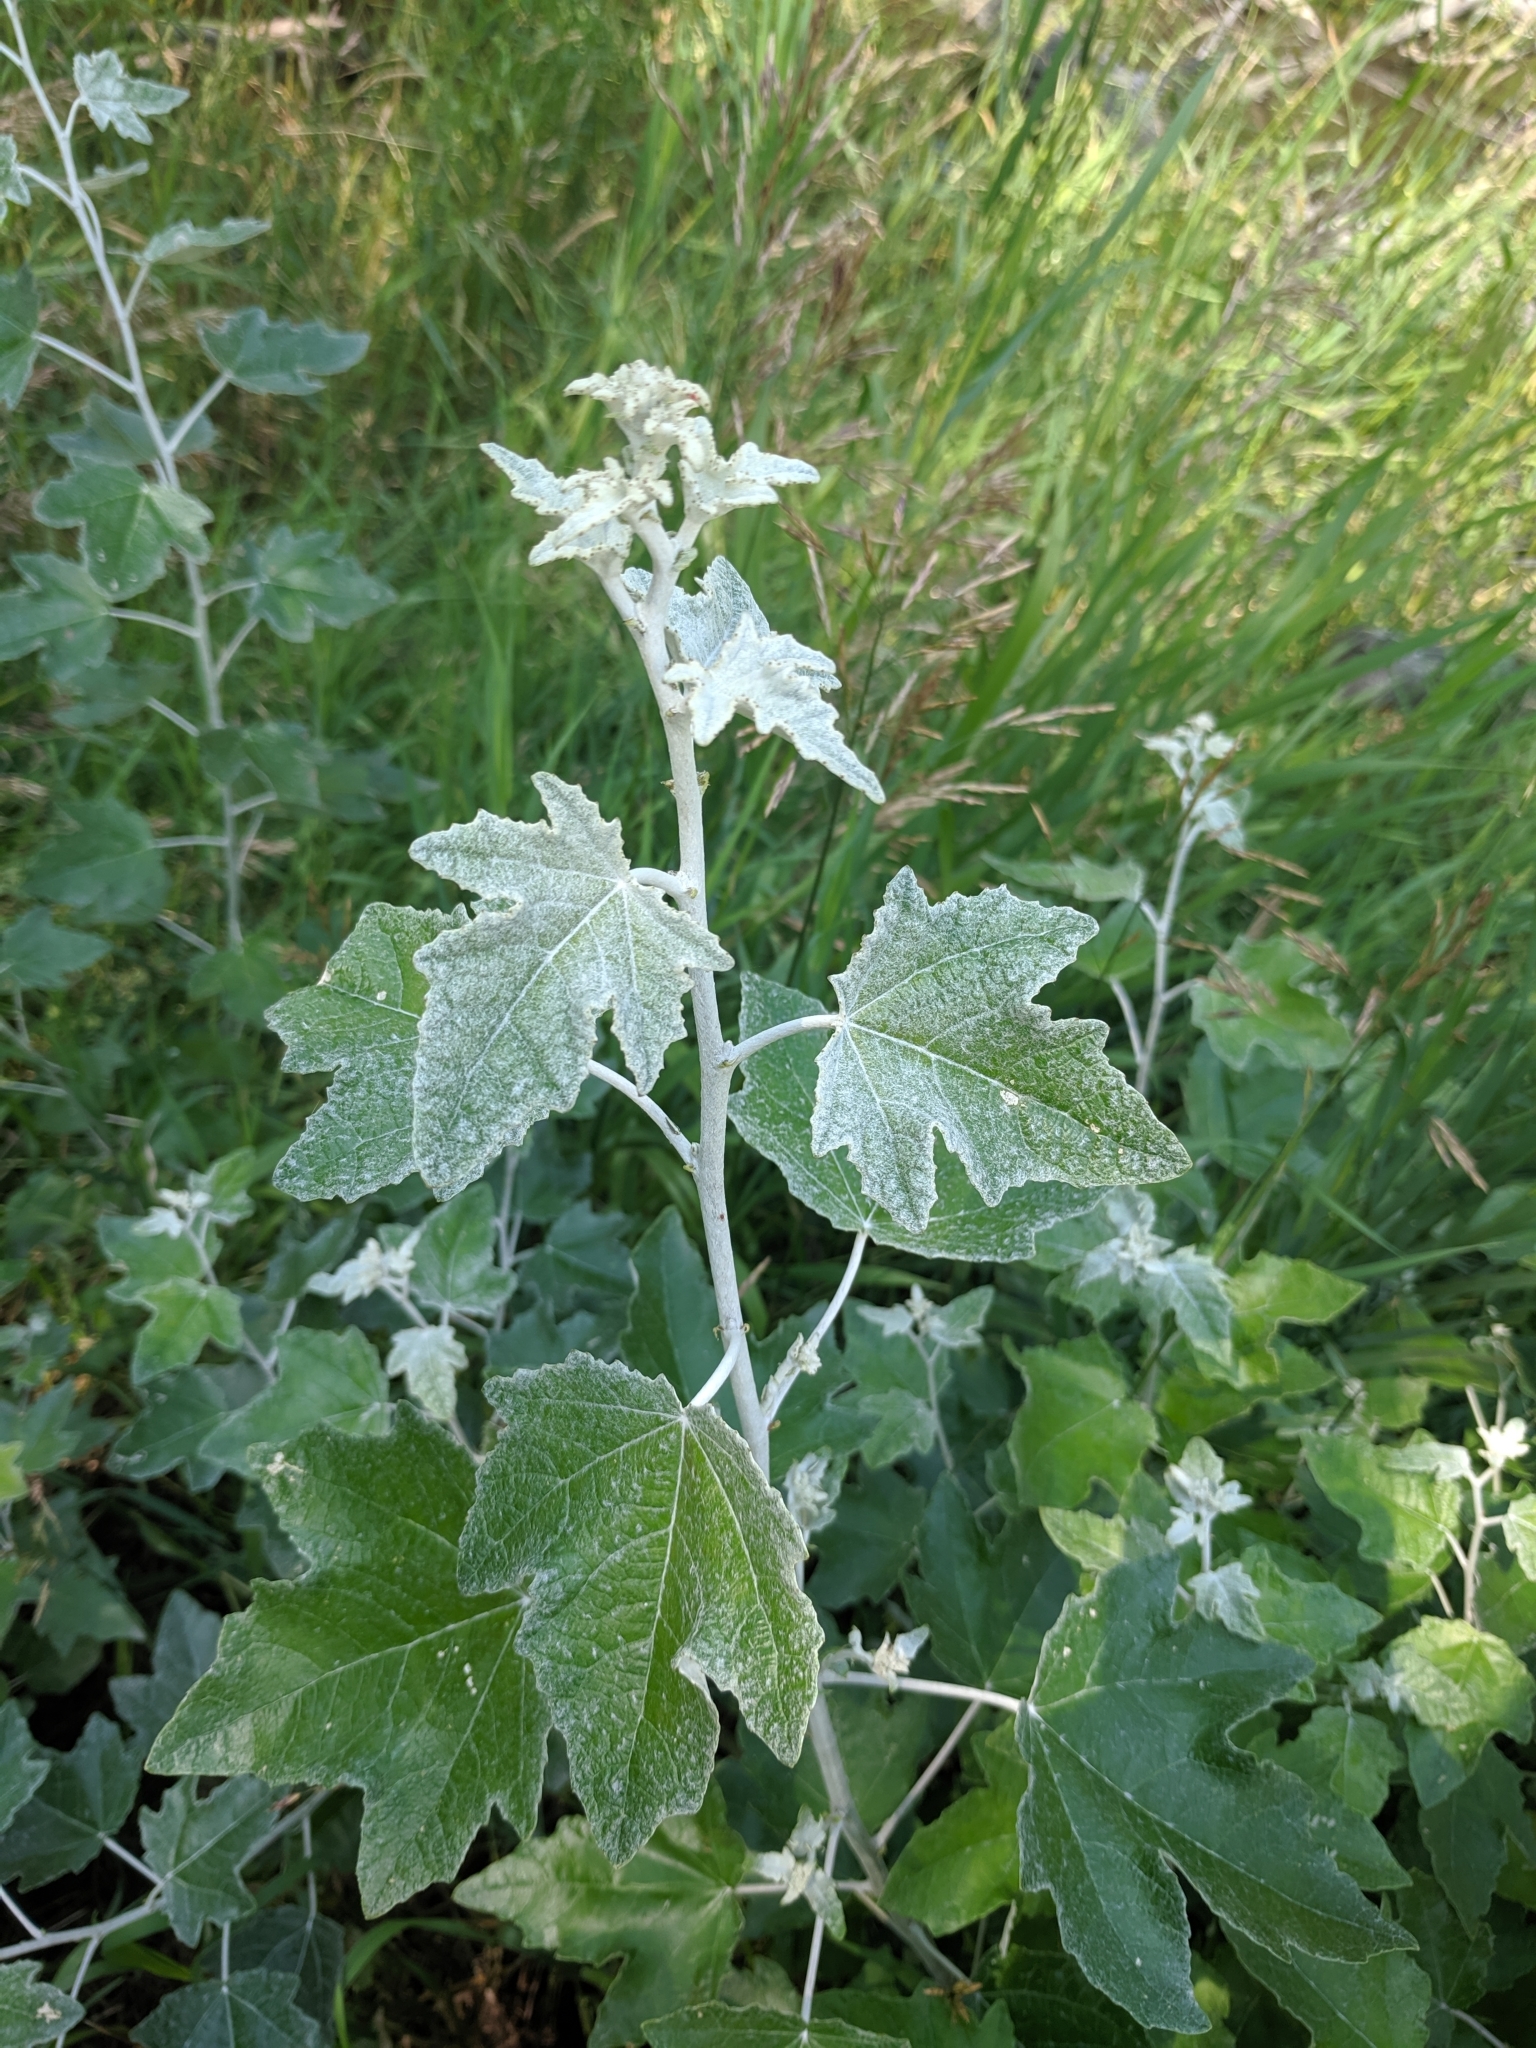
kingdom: Plantae
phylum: Tracheophyta
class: Magnoliopsida
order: Malpighiales
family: Salicaceae
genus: Populus
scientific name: Populus alba
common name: White poplar
